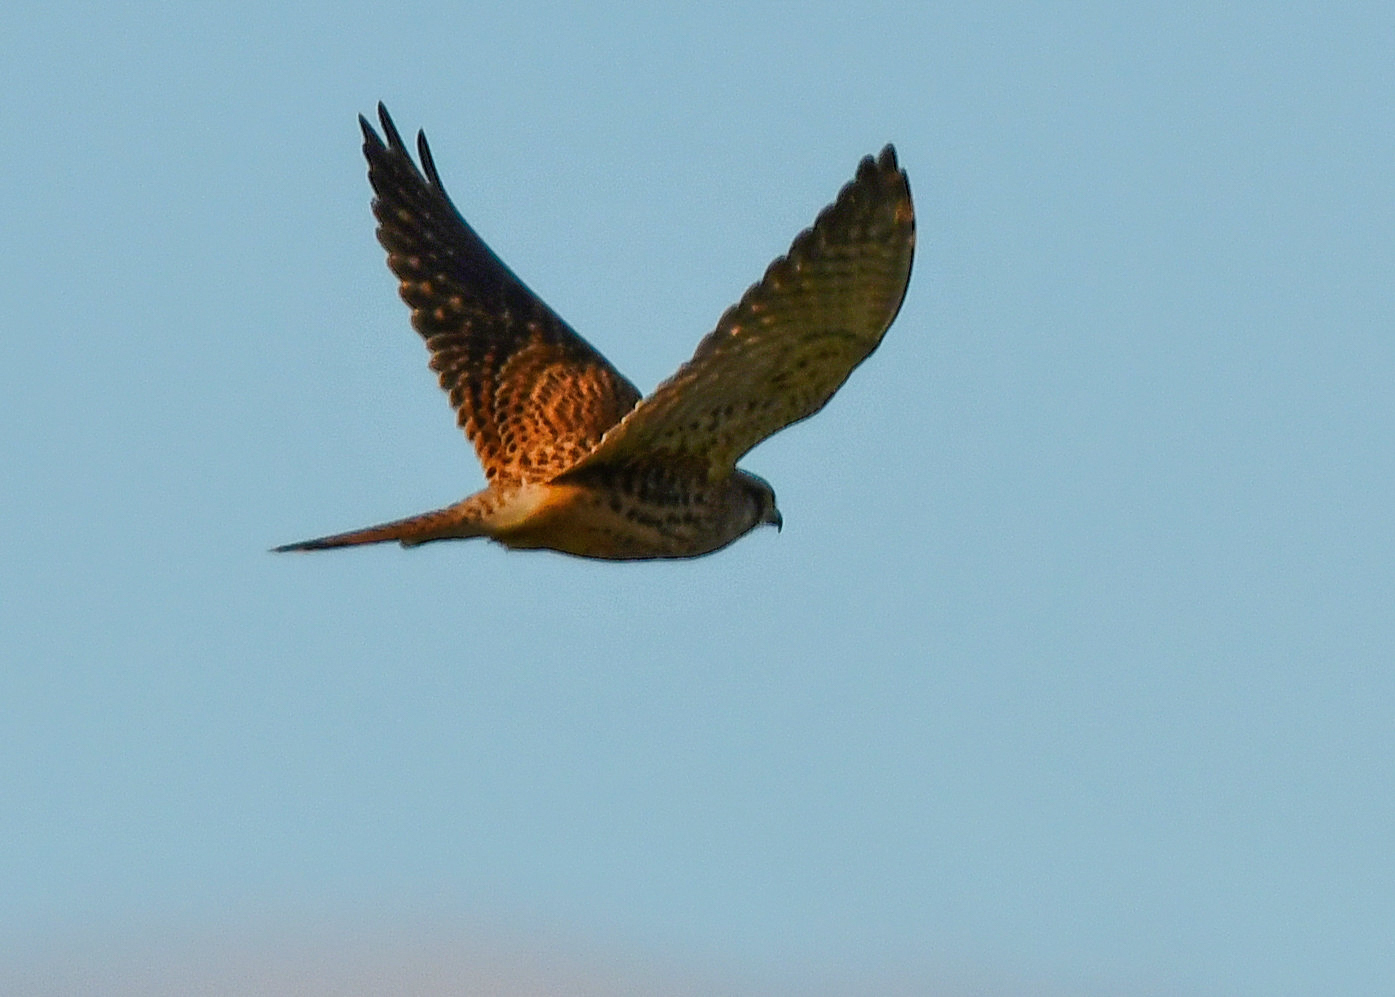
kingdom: Animalia
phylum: Chordata
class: Aves
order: Falconiformes
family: Falconidae
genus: Falco
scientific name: Falco tinnunculus
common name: Common kestrel
